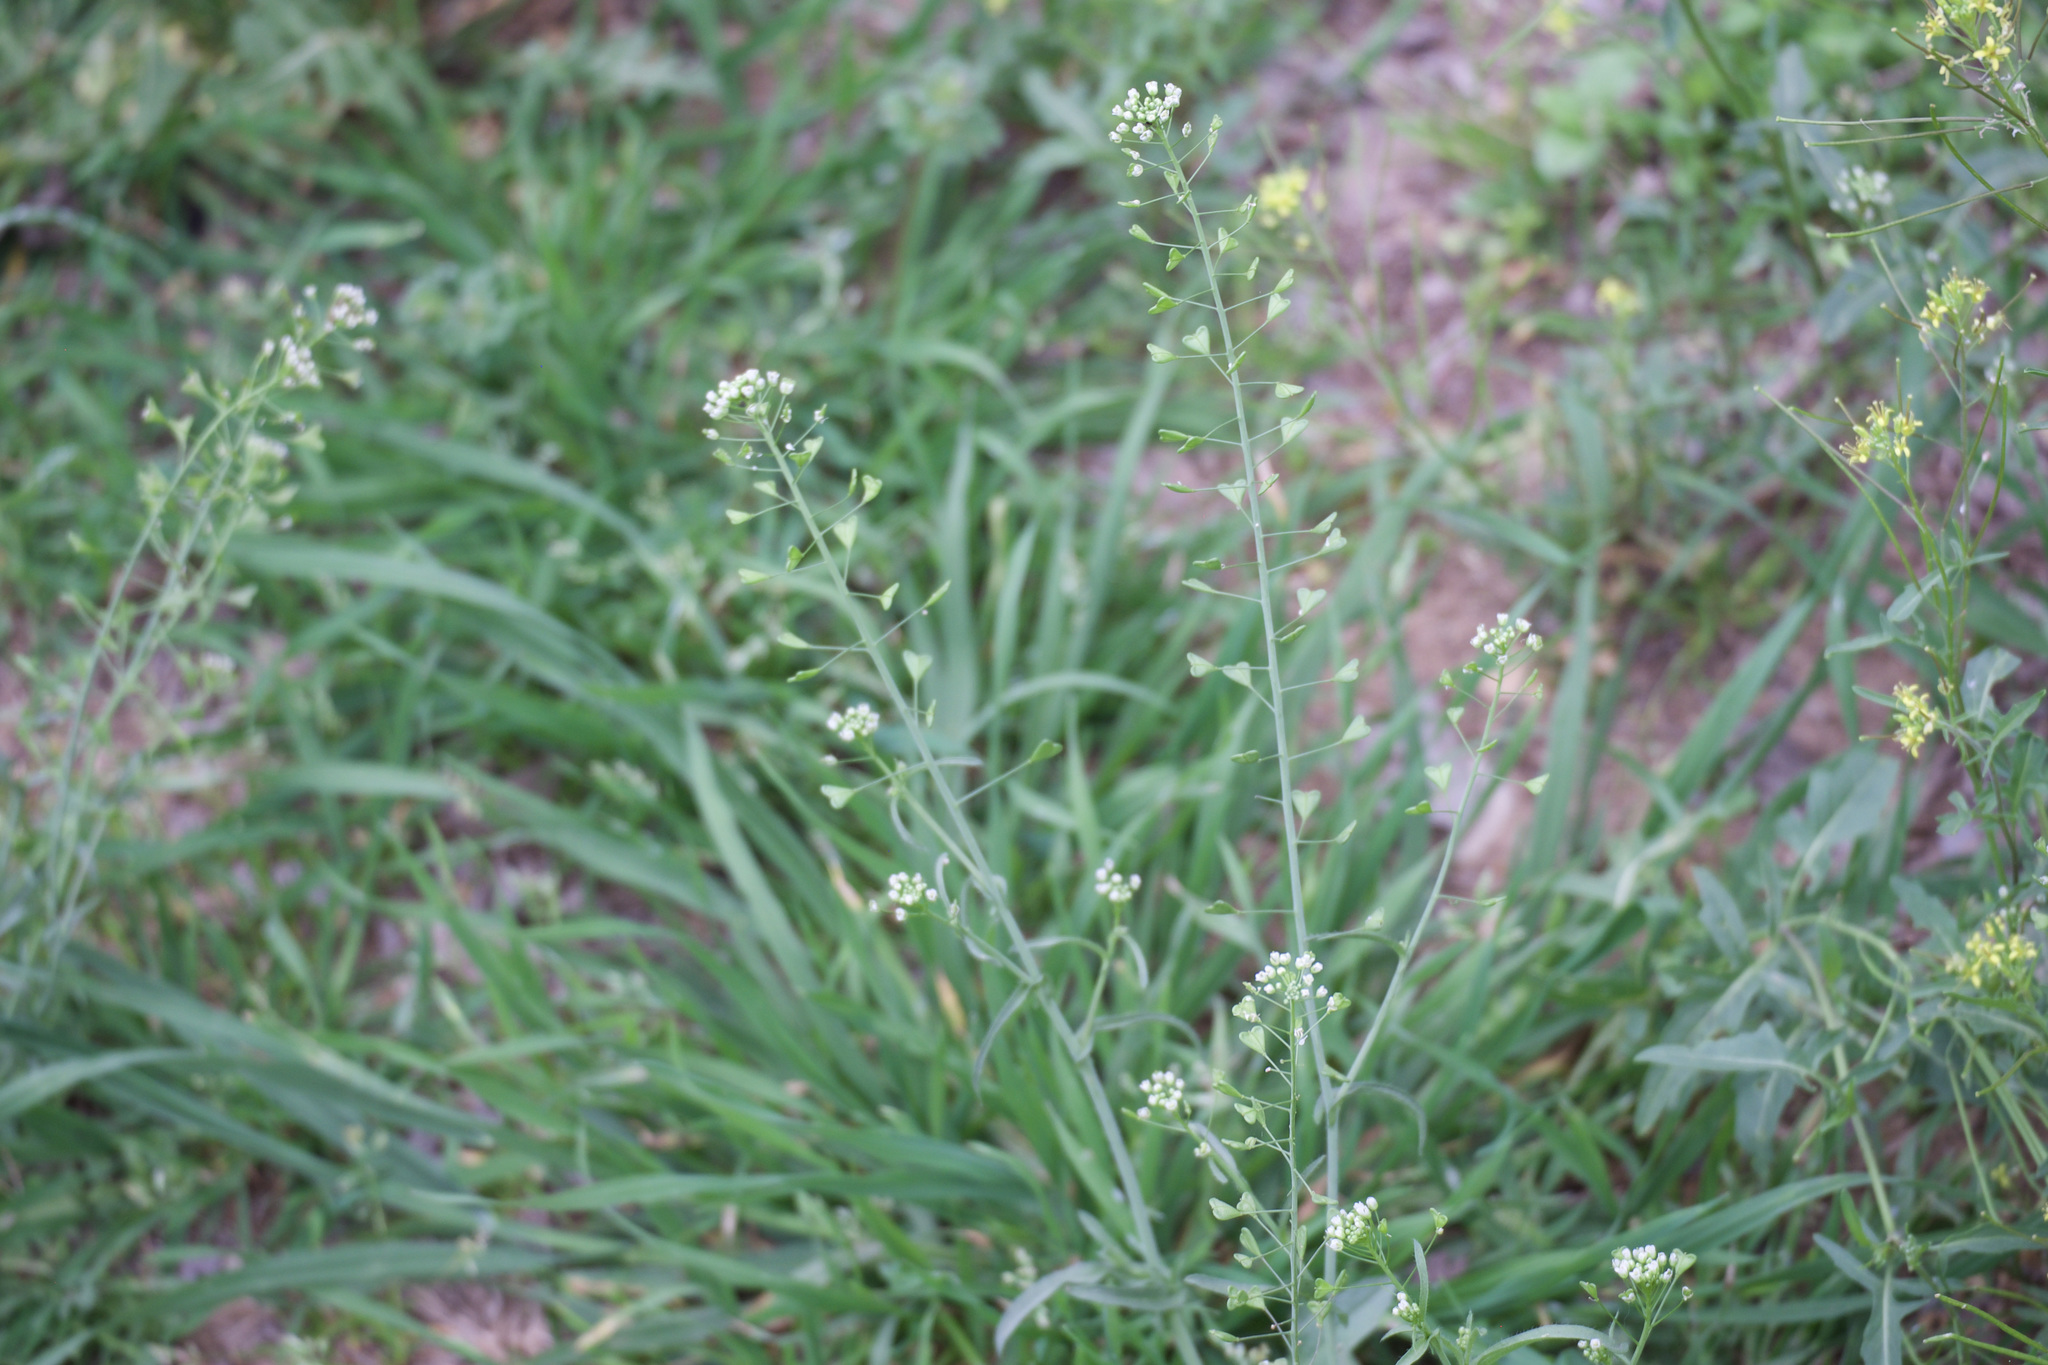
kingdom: Plantae
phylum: Tracheophyta
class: Magnoliopsida
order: Brassicales
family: Brassicaceae
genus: Capsella
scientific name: Capsella bursa-pastoris
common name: Shepherd's purse
